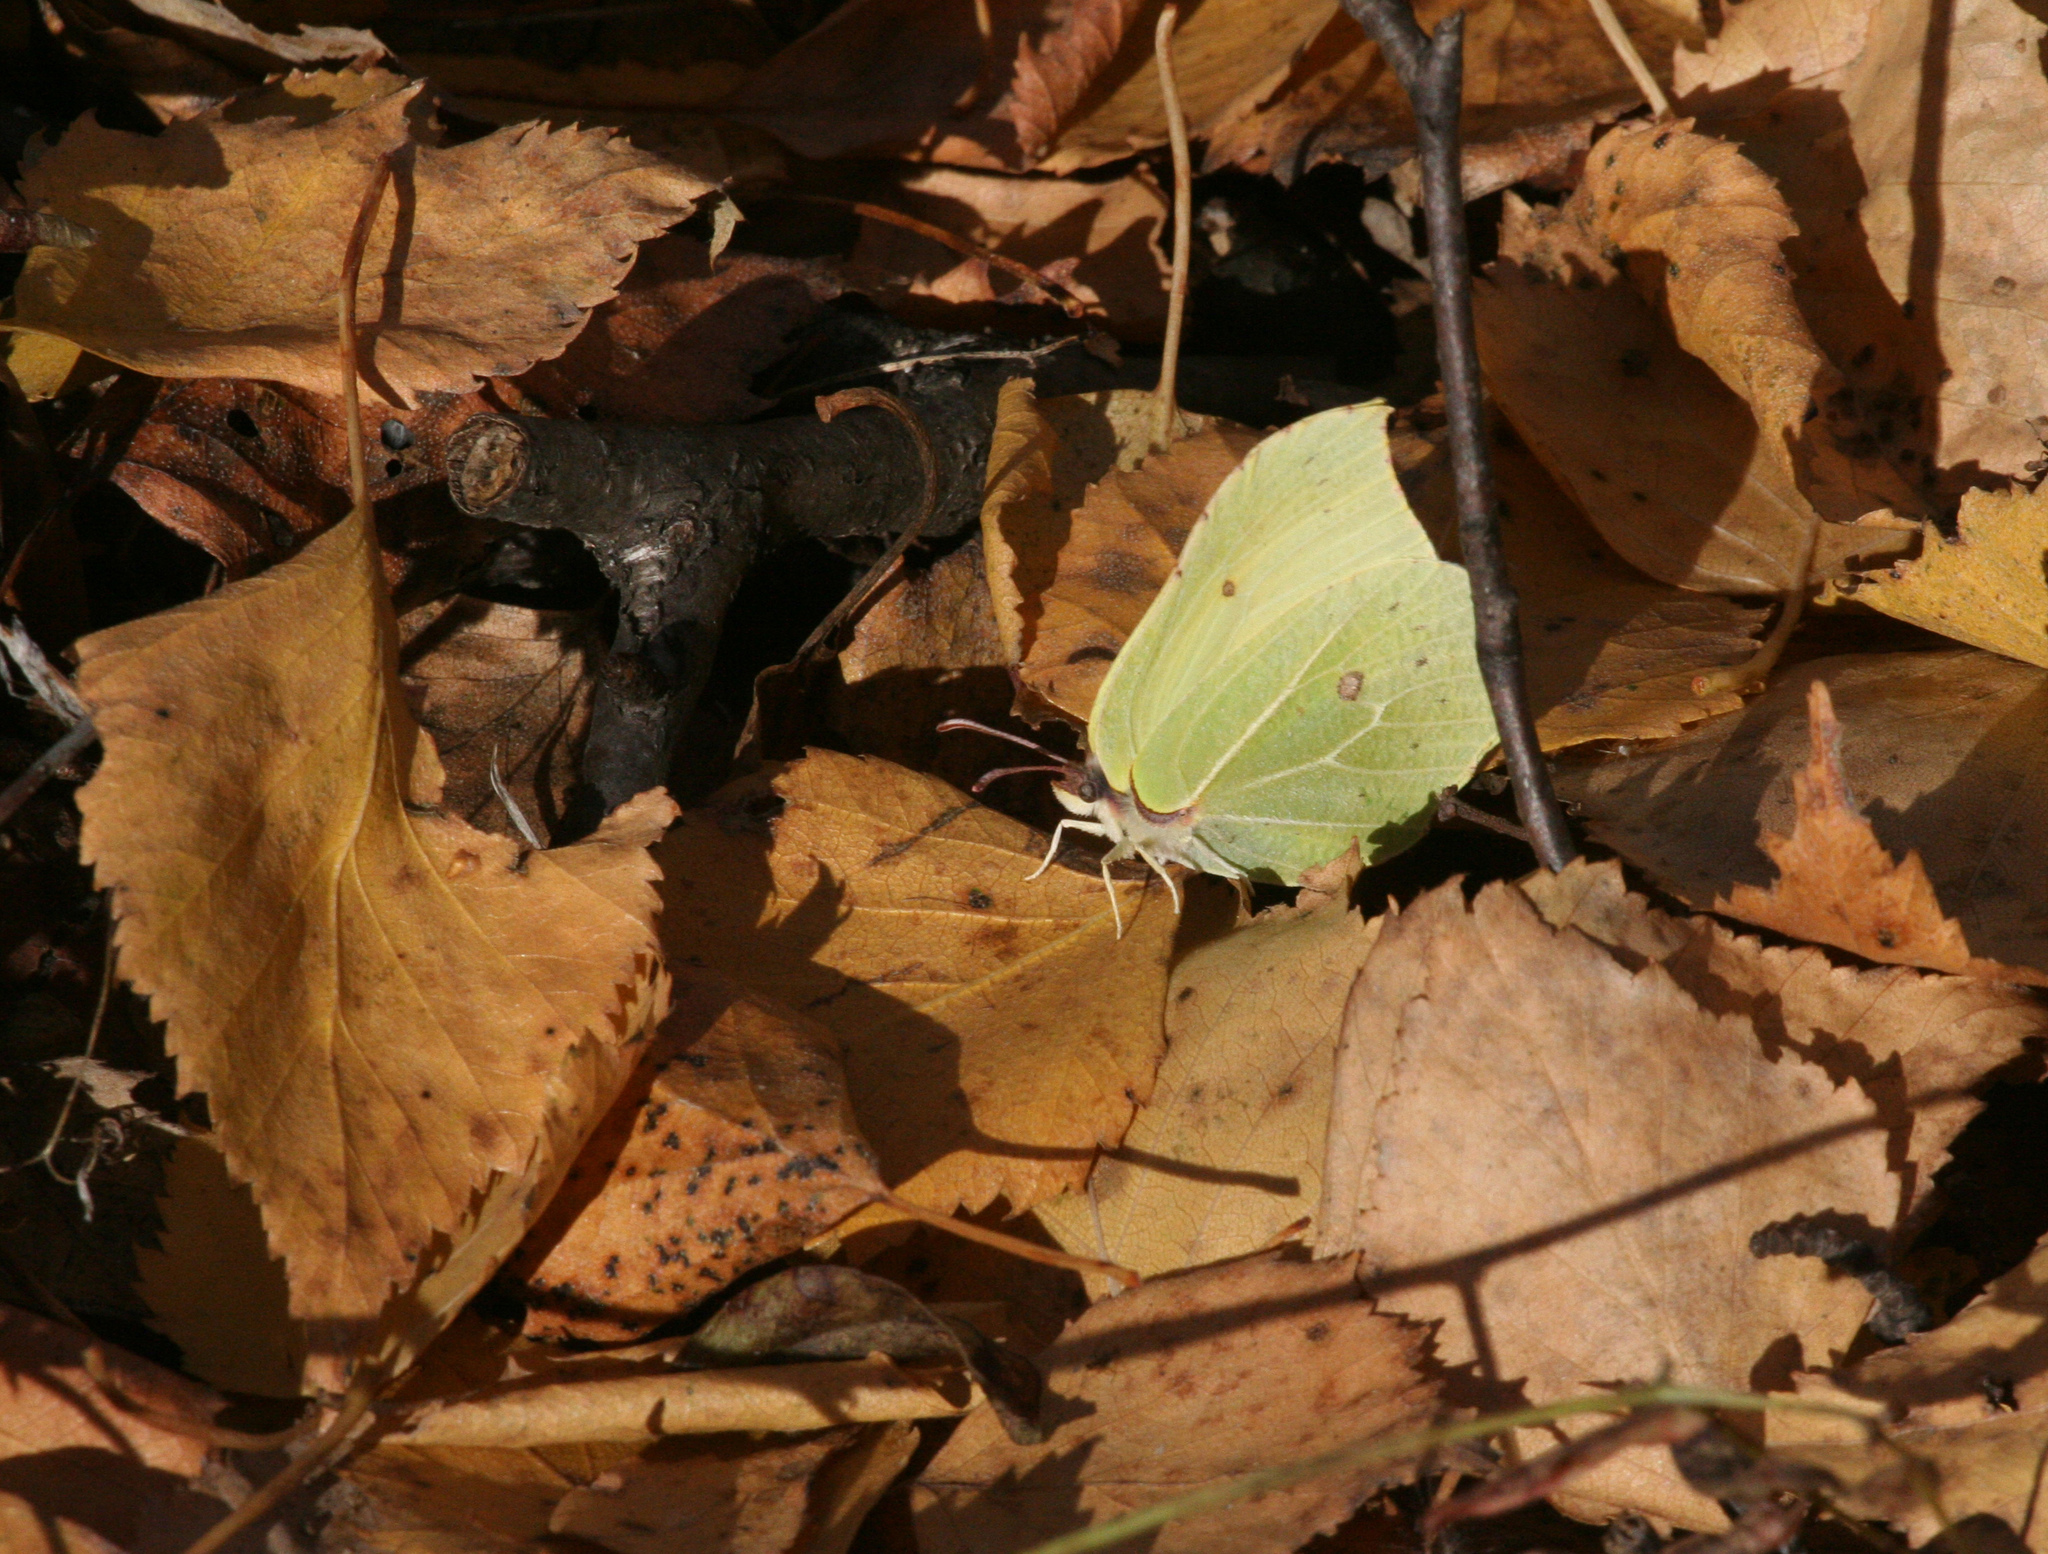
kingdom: Animalia
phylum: Arthropoda
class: Insecta
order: Lepidoptera
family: Pieridae
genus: Gonepteryx
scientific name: Gonepteryx rhamni
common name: Brimstone
